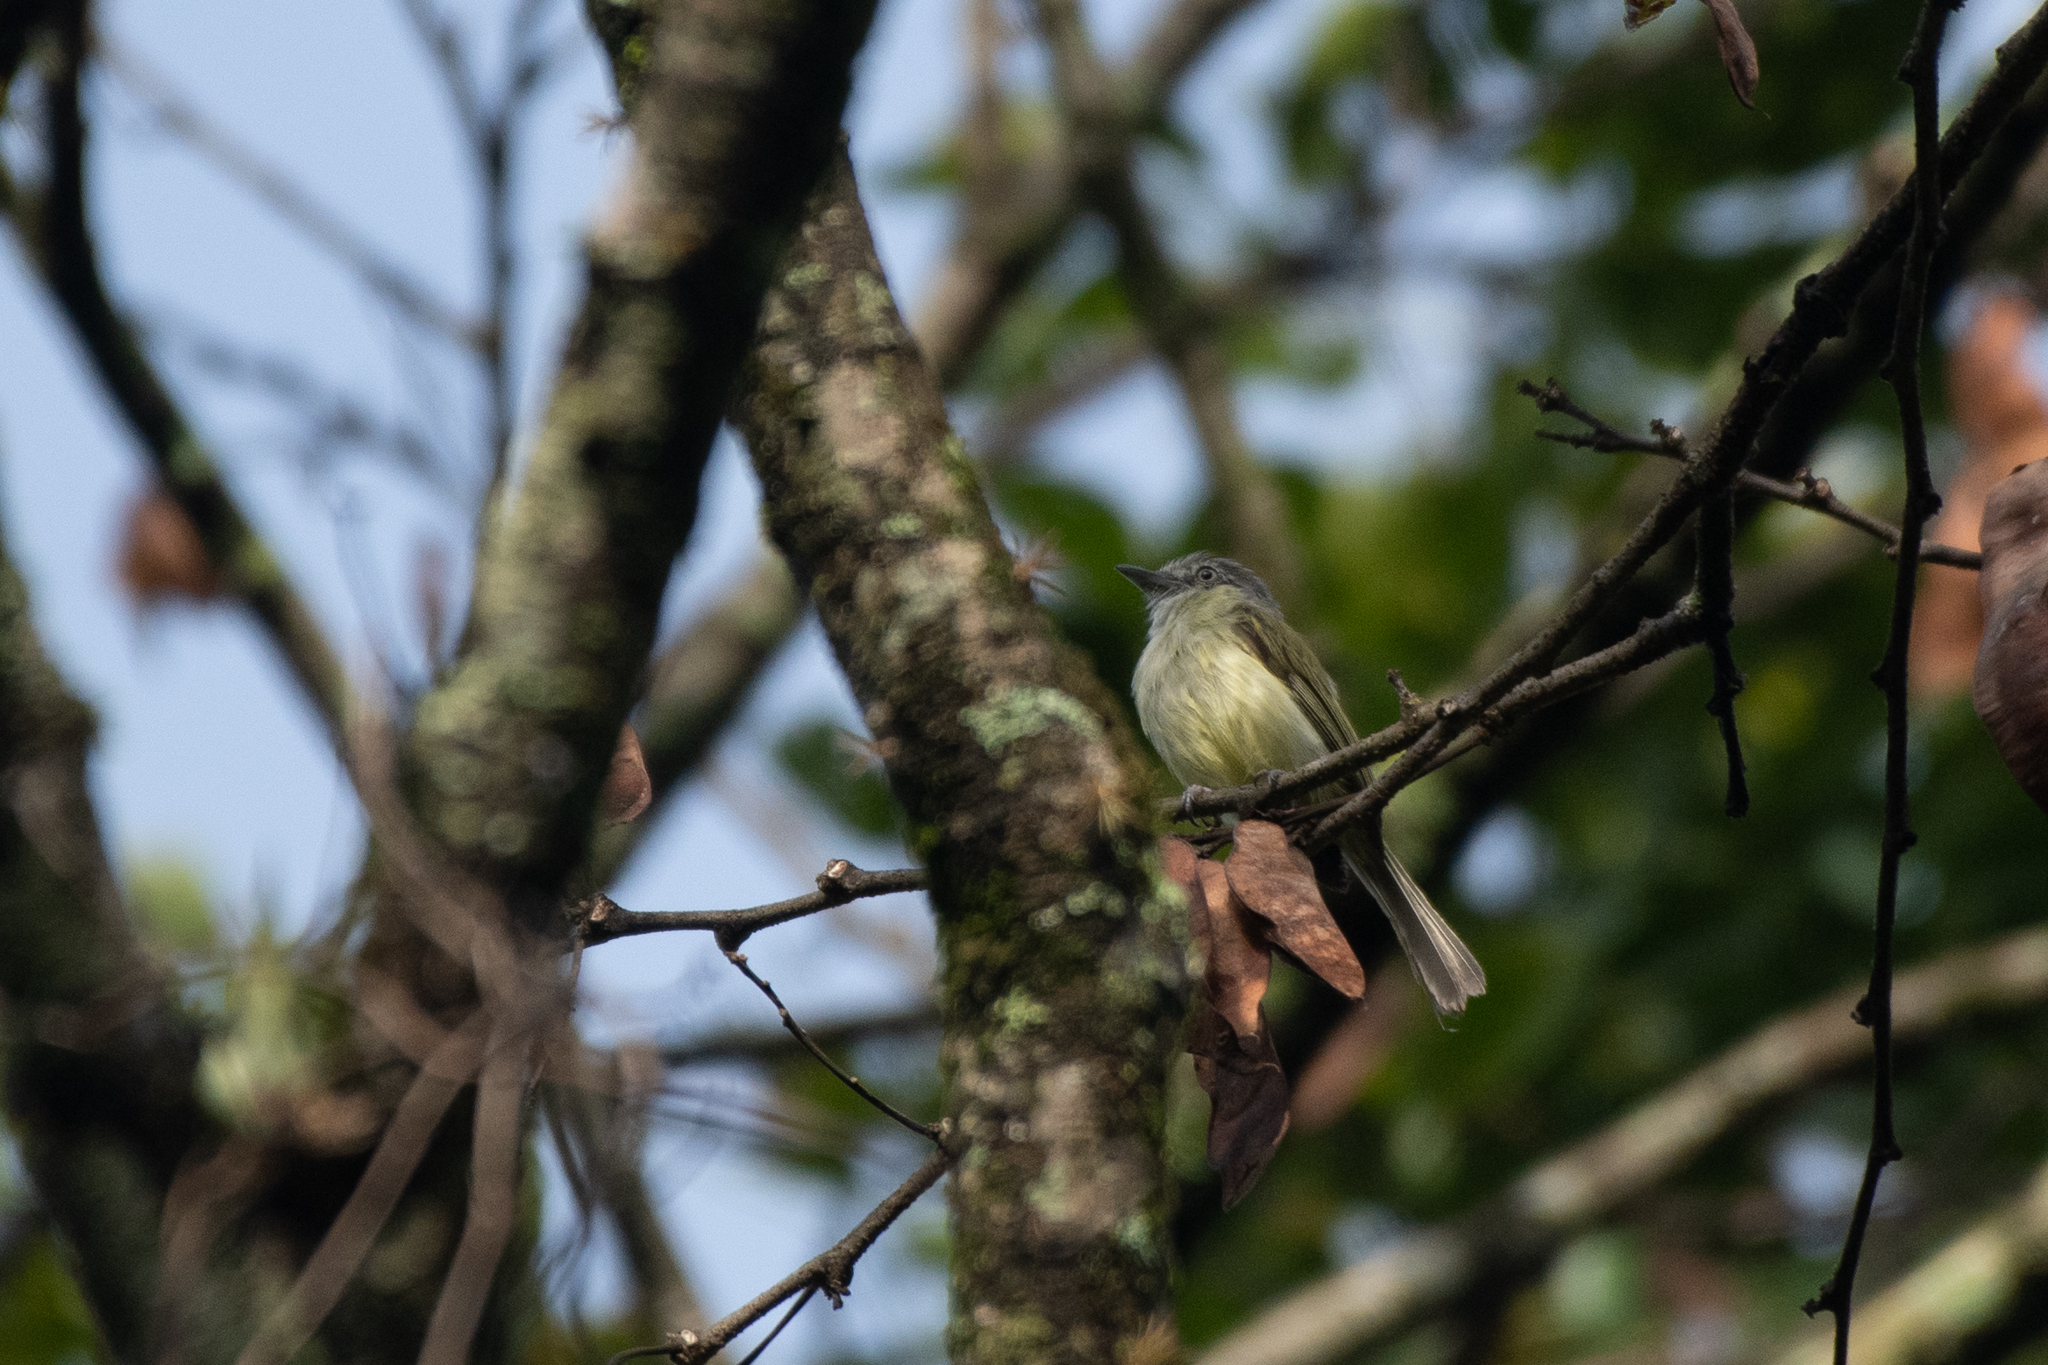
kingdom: Animalia
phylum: Chordata
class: Aves
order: Passeriformes
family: Tyrannidae
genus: Tolmomyias
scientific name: Tolmomyias sulphurescens
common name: Yellow-olive flycatcher
